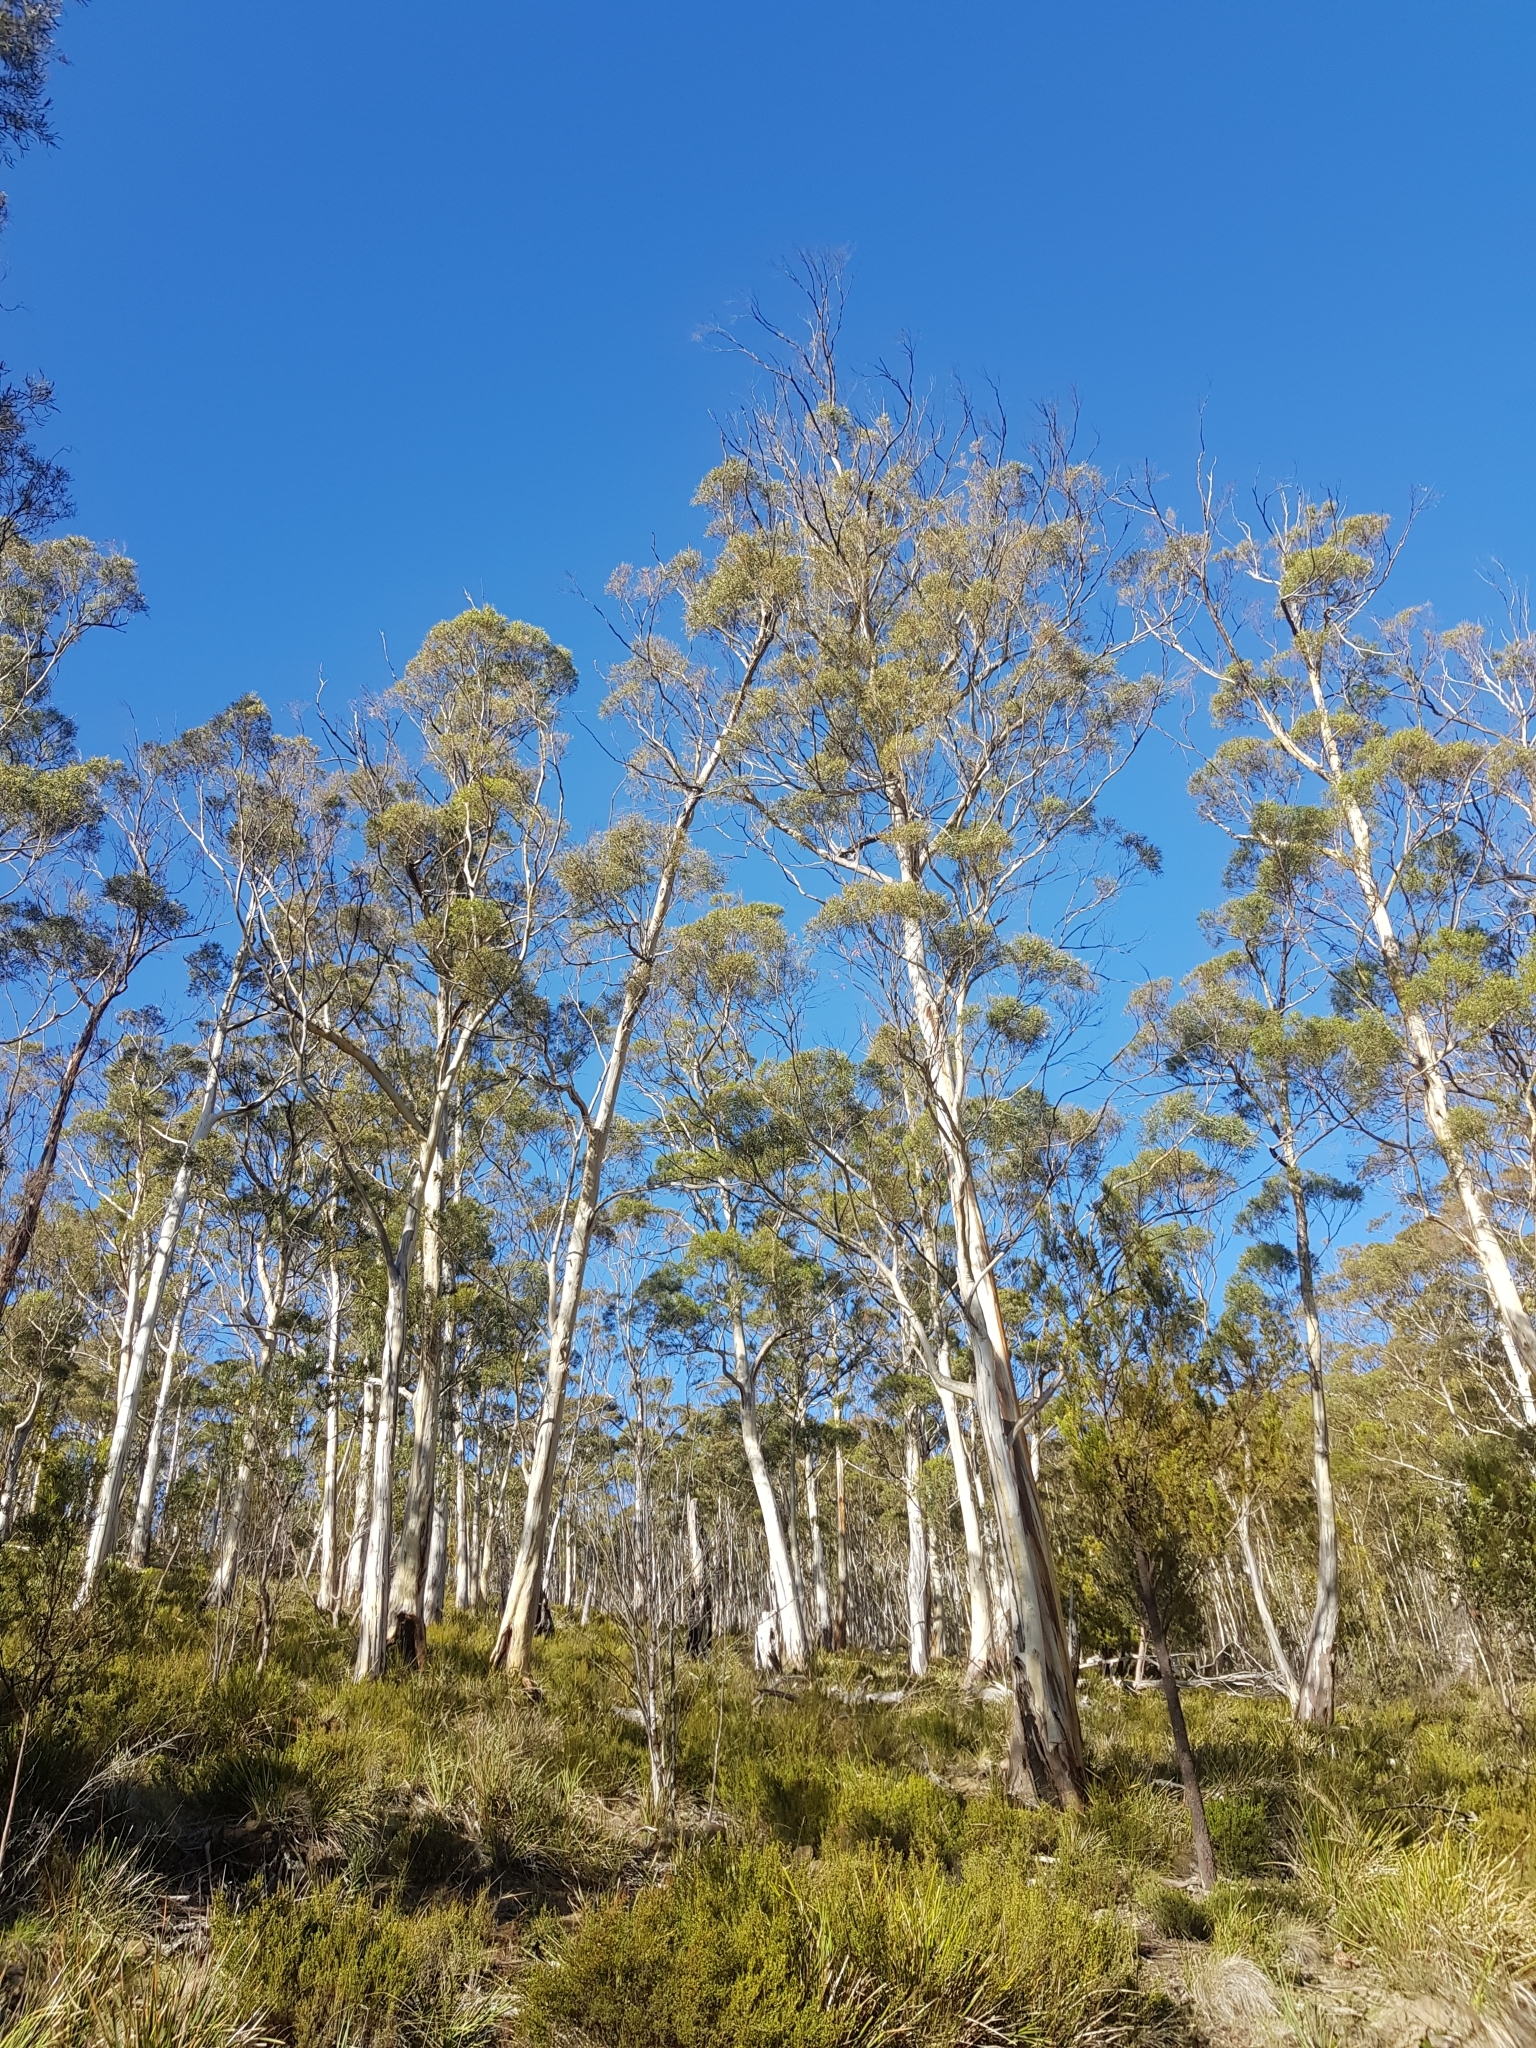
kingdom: Plantae
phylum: Tracheophyta
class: Magnoliopsida
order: Myrtales
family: Myrtaceae
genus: Eucalyptus
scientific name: Eucalyptus pulchella
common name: White peppermint
